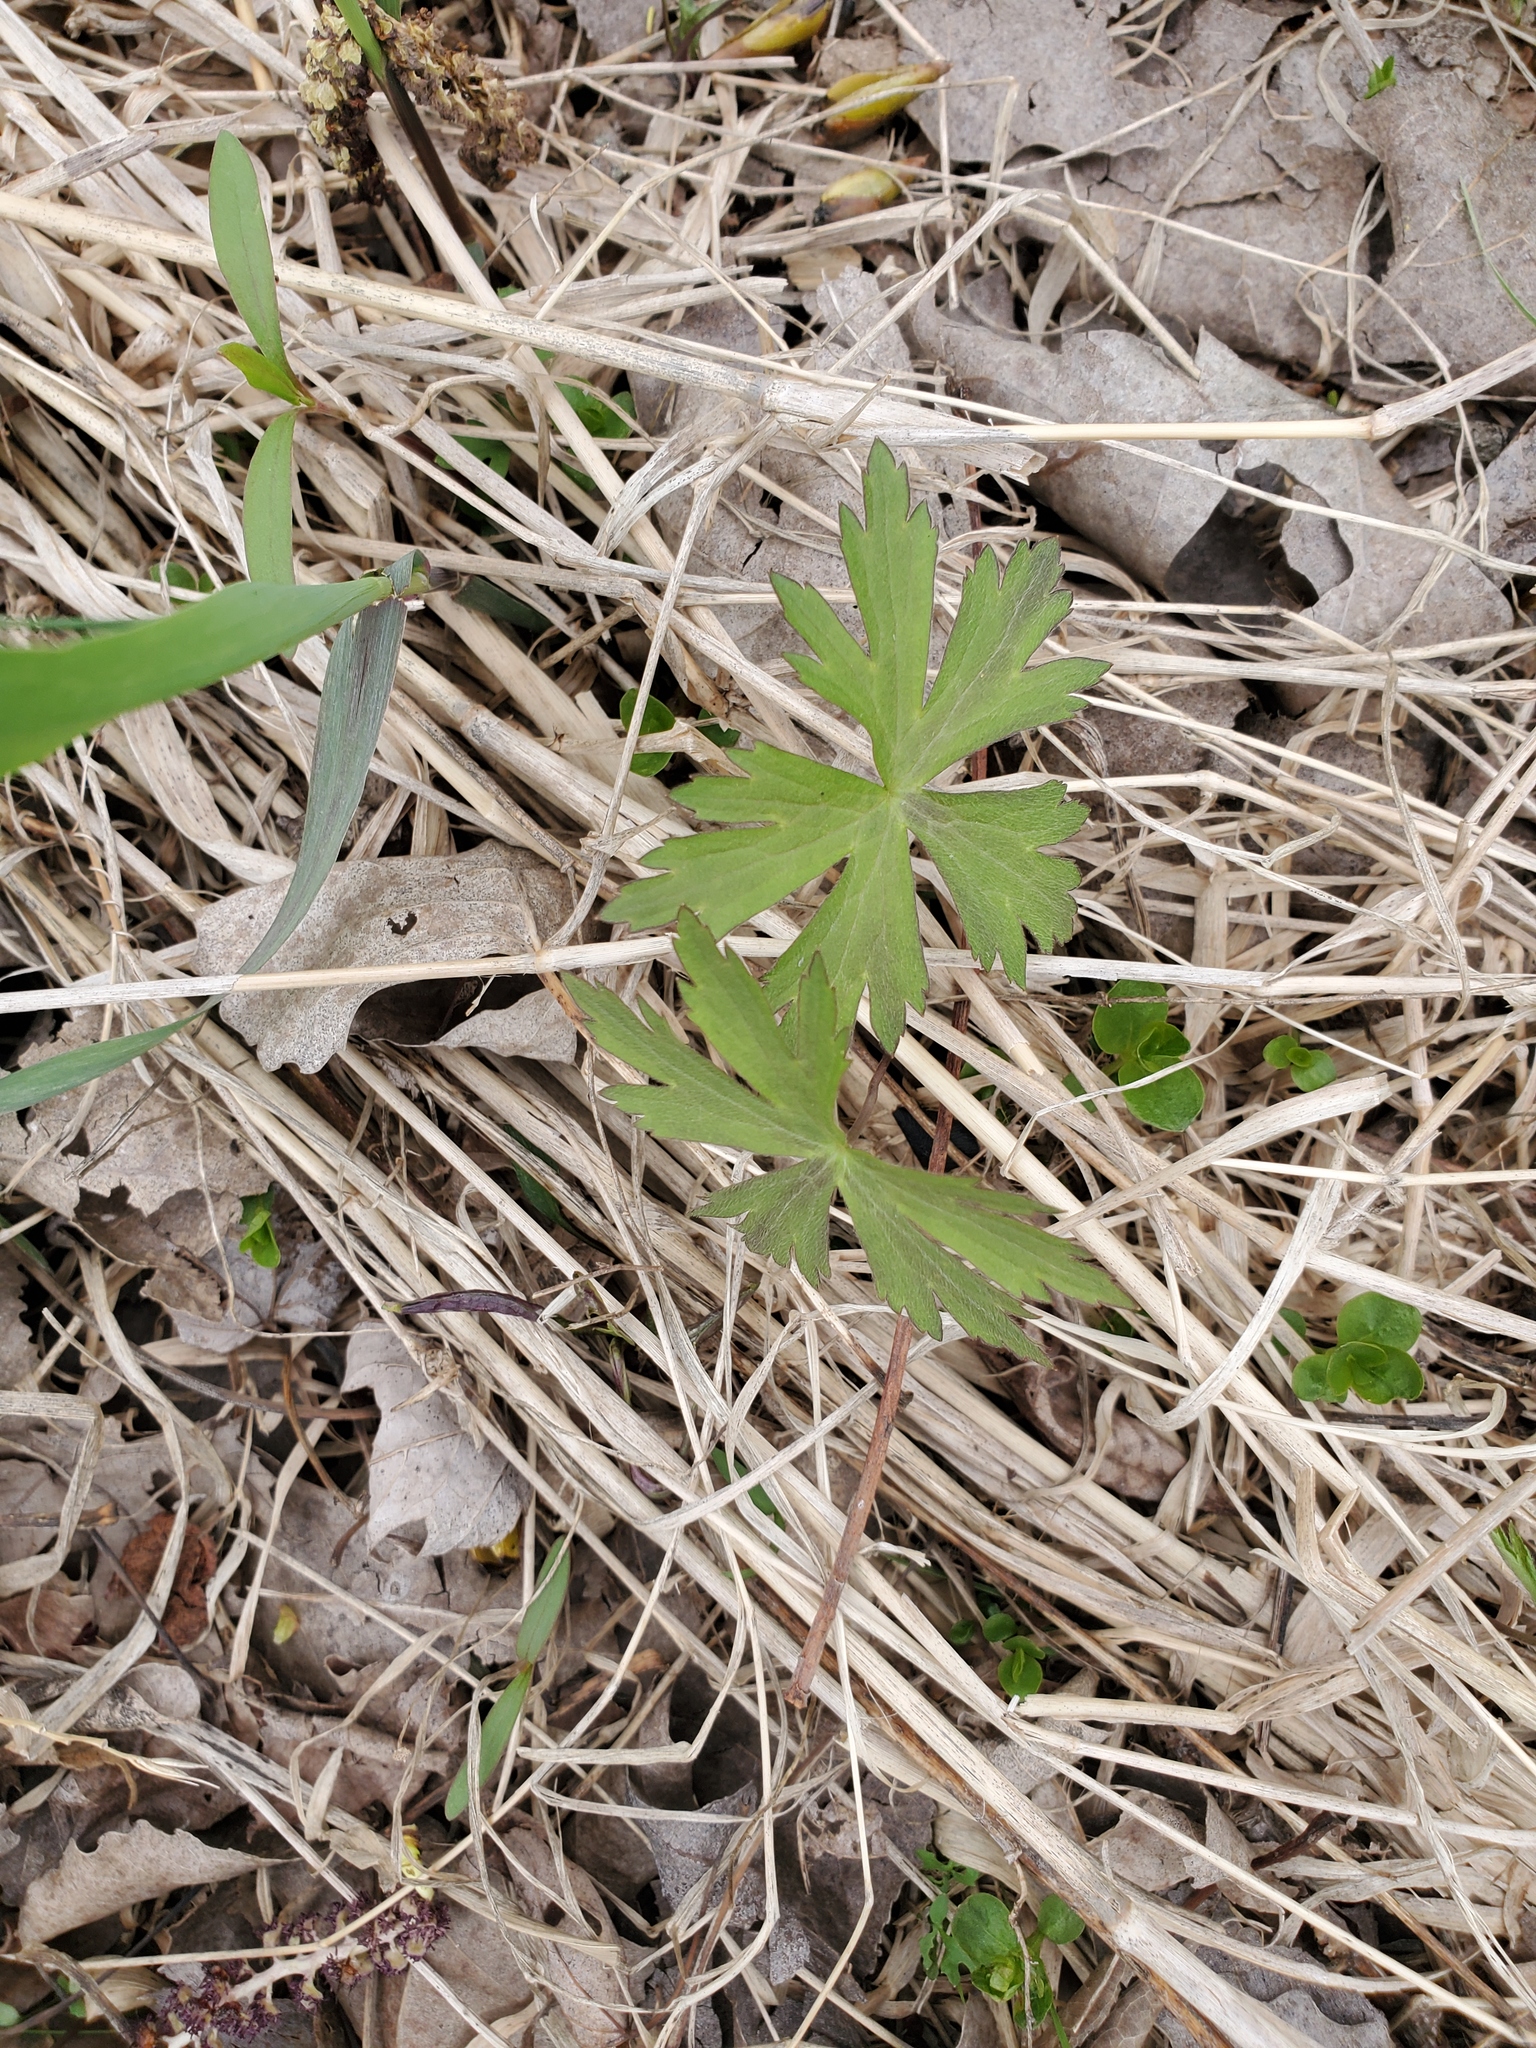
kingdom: Plantae
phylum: Tracheophyta
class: Magnoliopsida
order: Geraniales
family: Geraniaceae
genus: Geranium
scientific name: Geranium maculatum
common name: Spotted geranium
